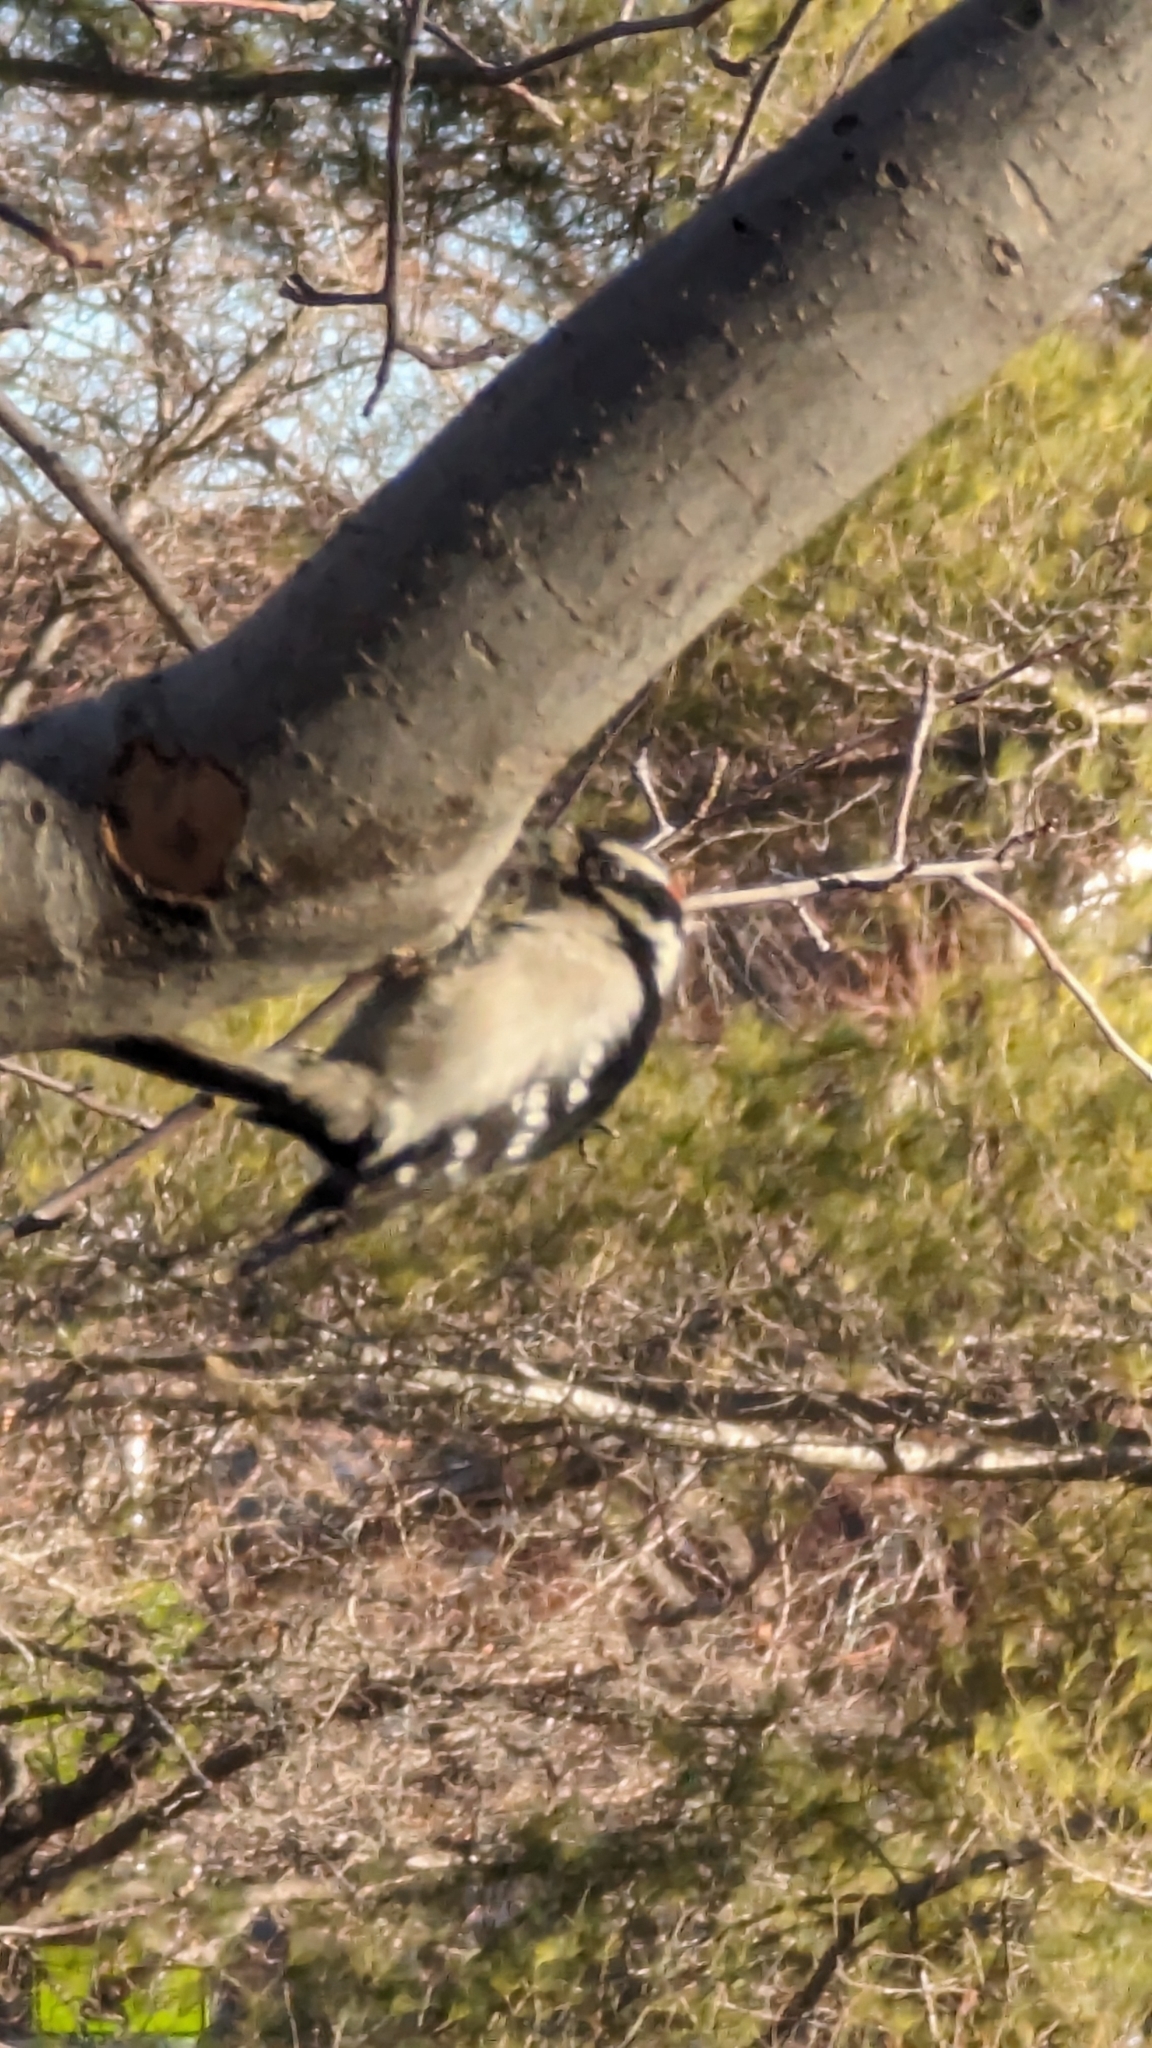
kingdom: Animalia
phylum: Chordata
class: Aves
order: Piciformes
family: Picidae
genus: Dryobates
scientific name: Dryobates pubescens
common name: Downy woodpecker
